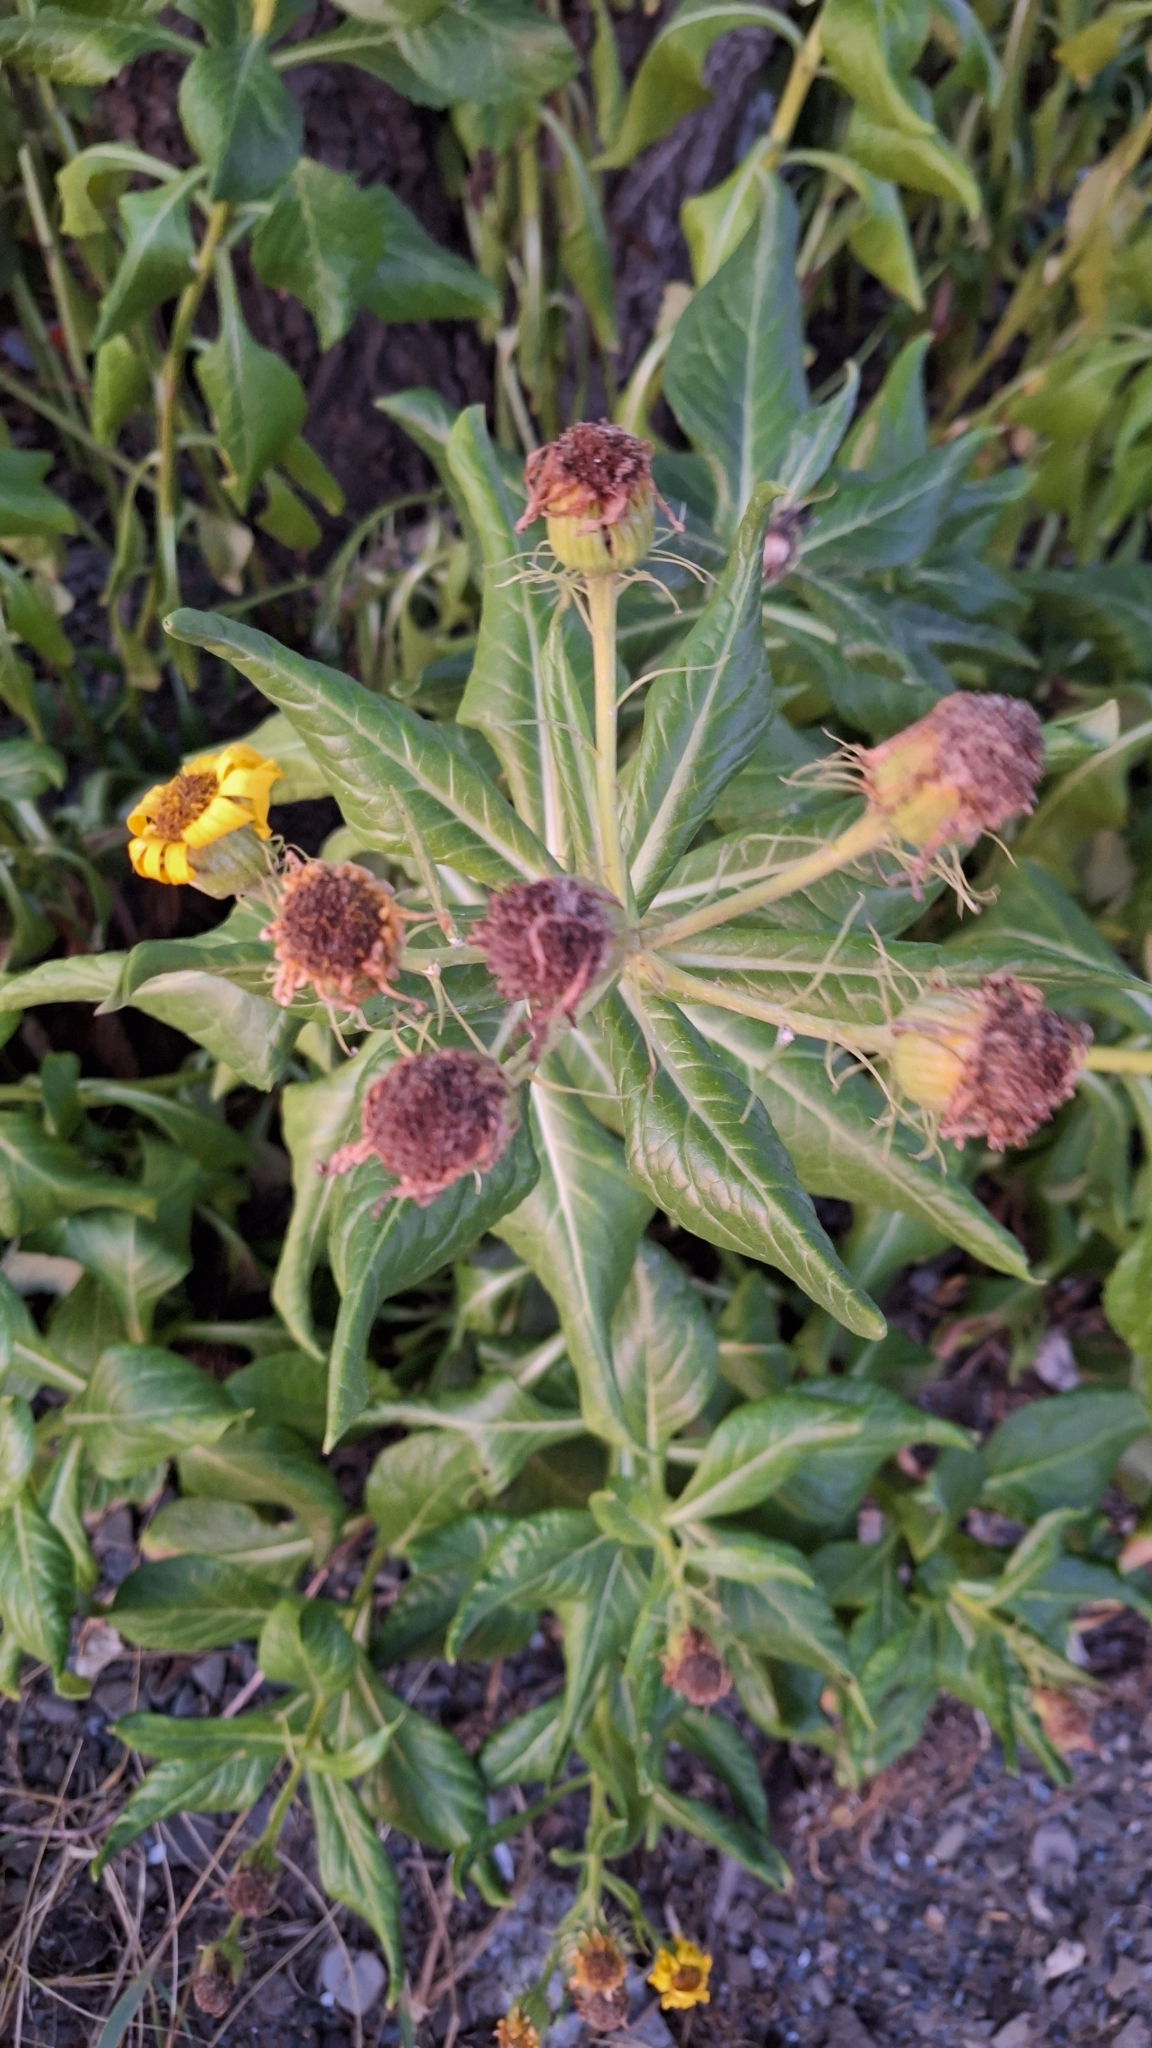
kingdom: Plantae
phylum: Tracheophyta
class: Magnoliopsida
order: Asterales
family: Asteraceae
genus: Jacobaea
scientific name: Jacobaea pseudoarnica
